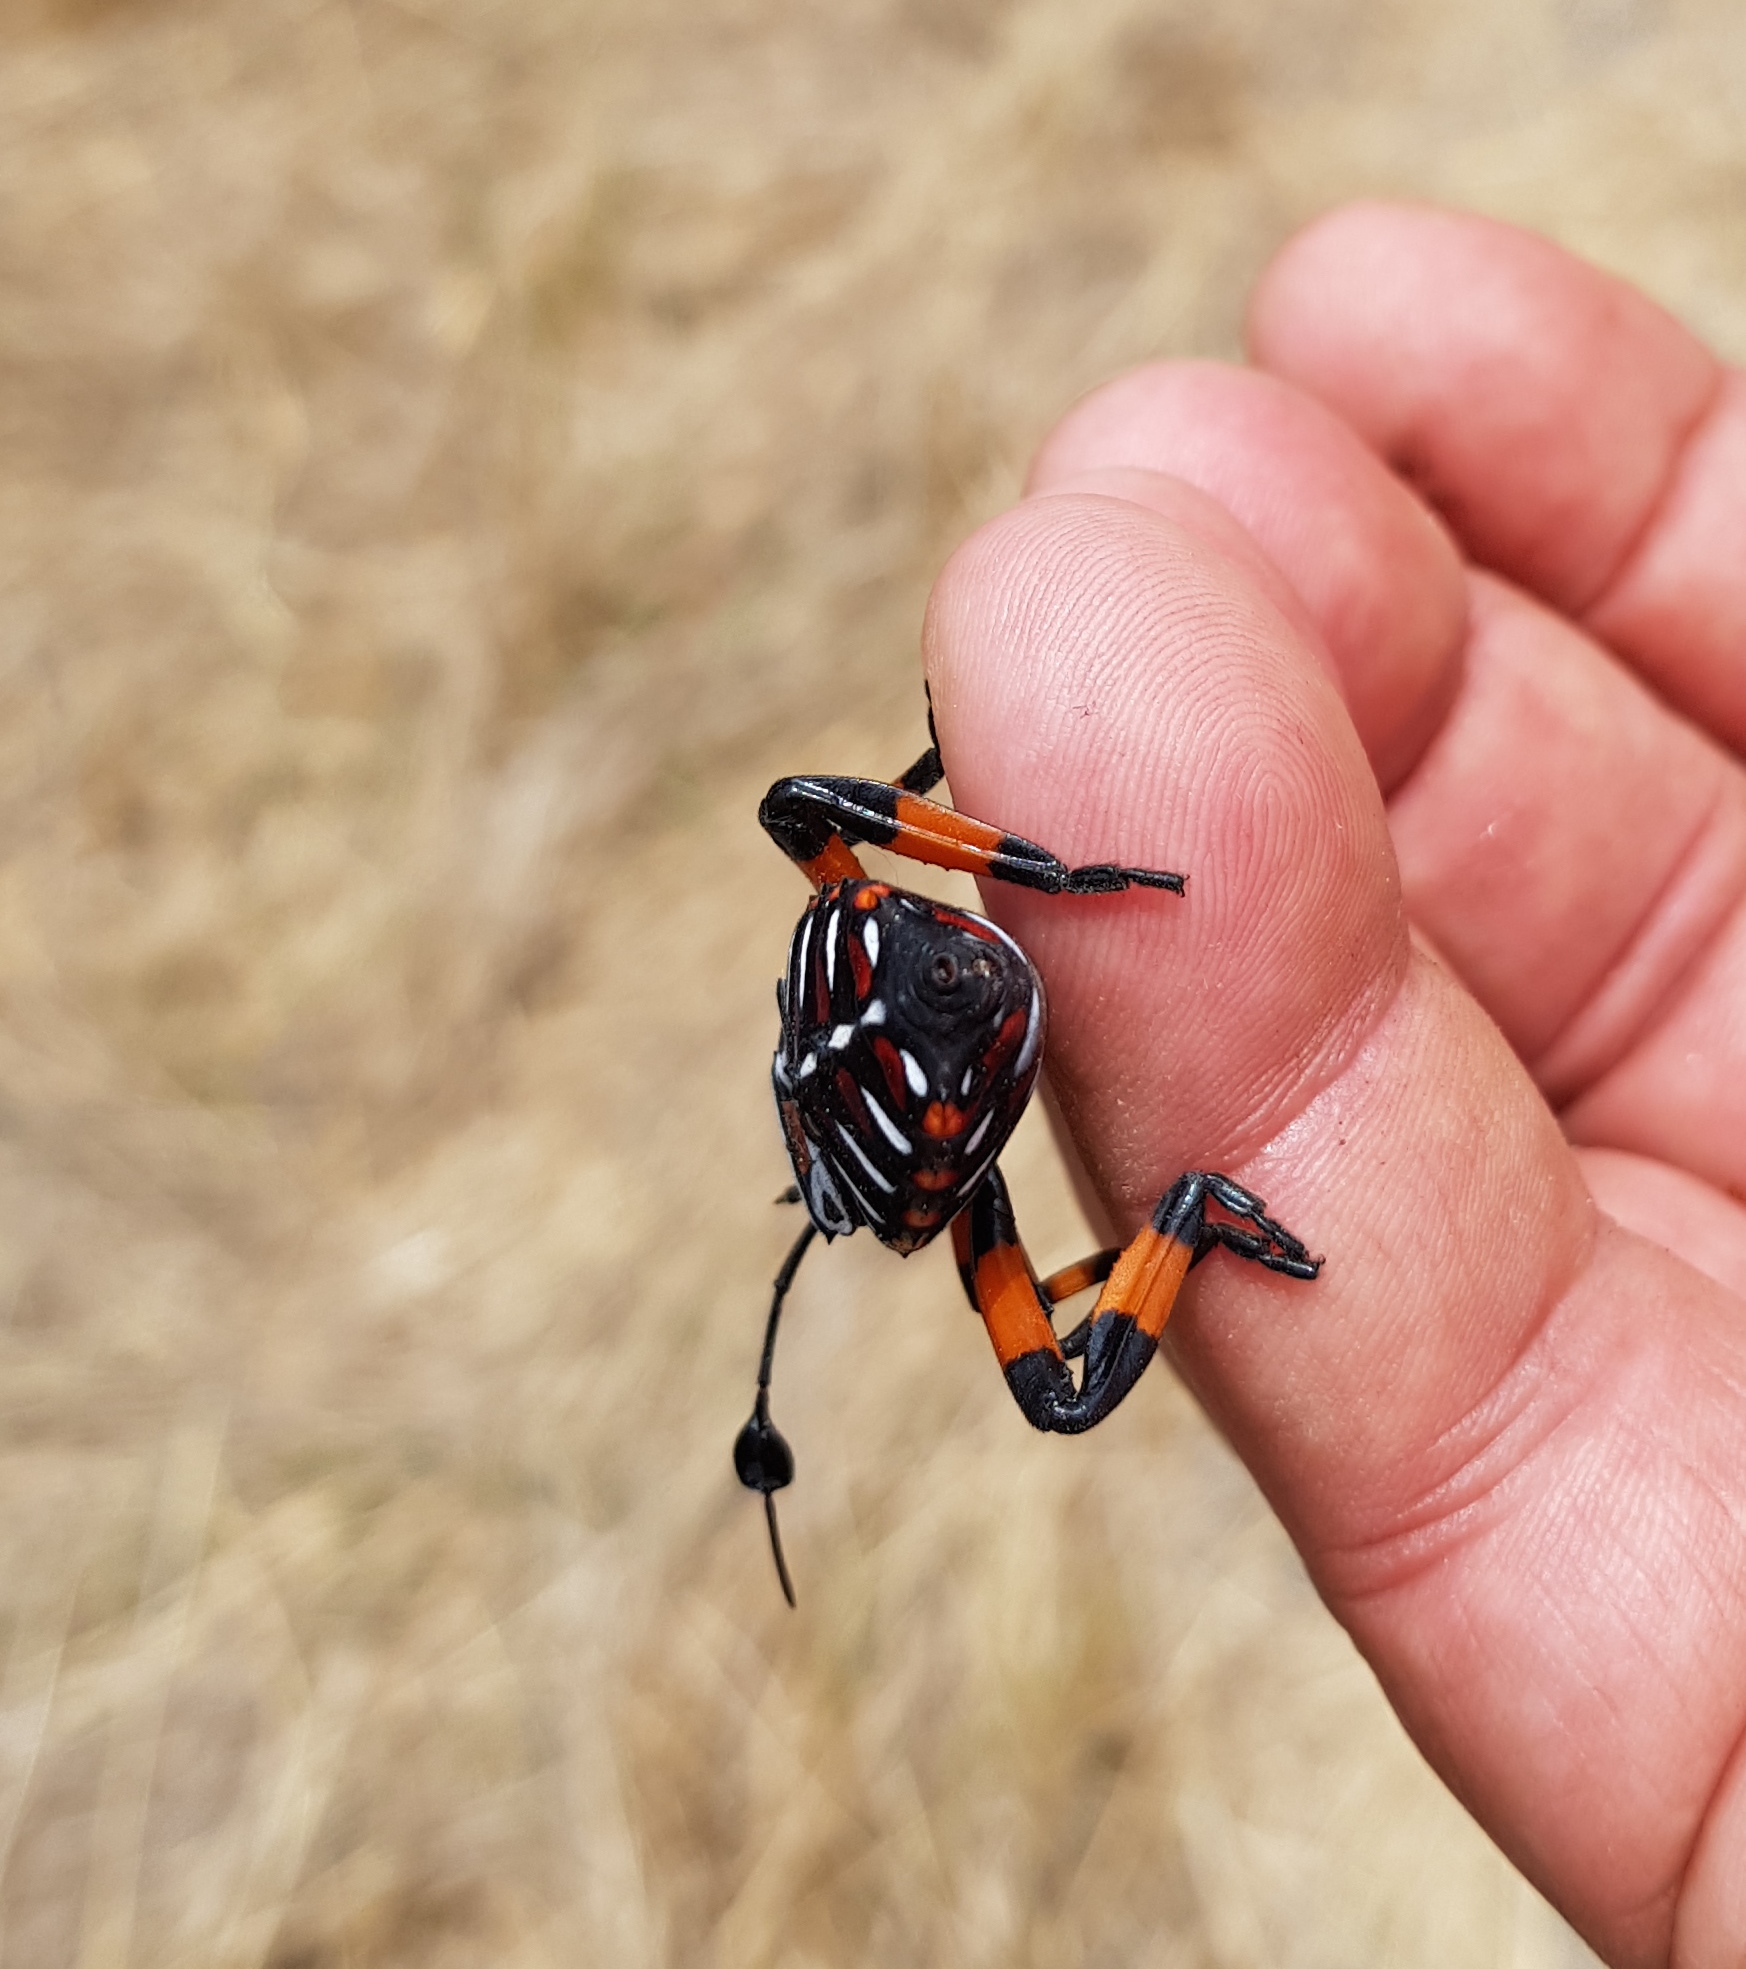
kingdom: Animalia
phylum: Arthropoda
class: Insecta
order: Hemiptera
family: Coreidae
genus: Thasus
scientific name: Thasus
